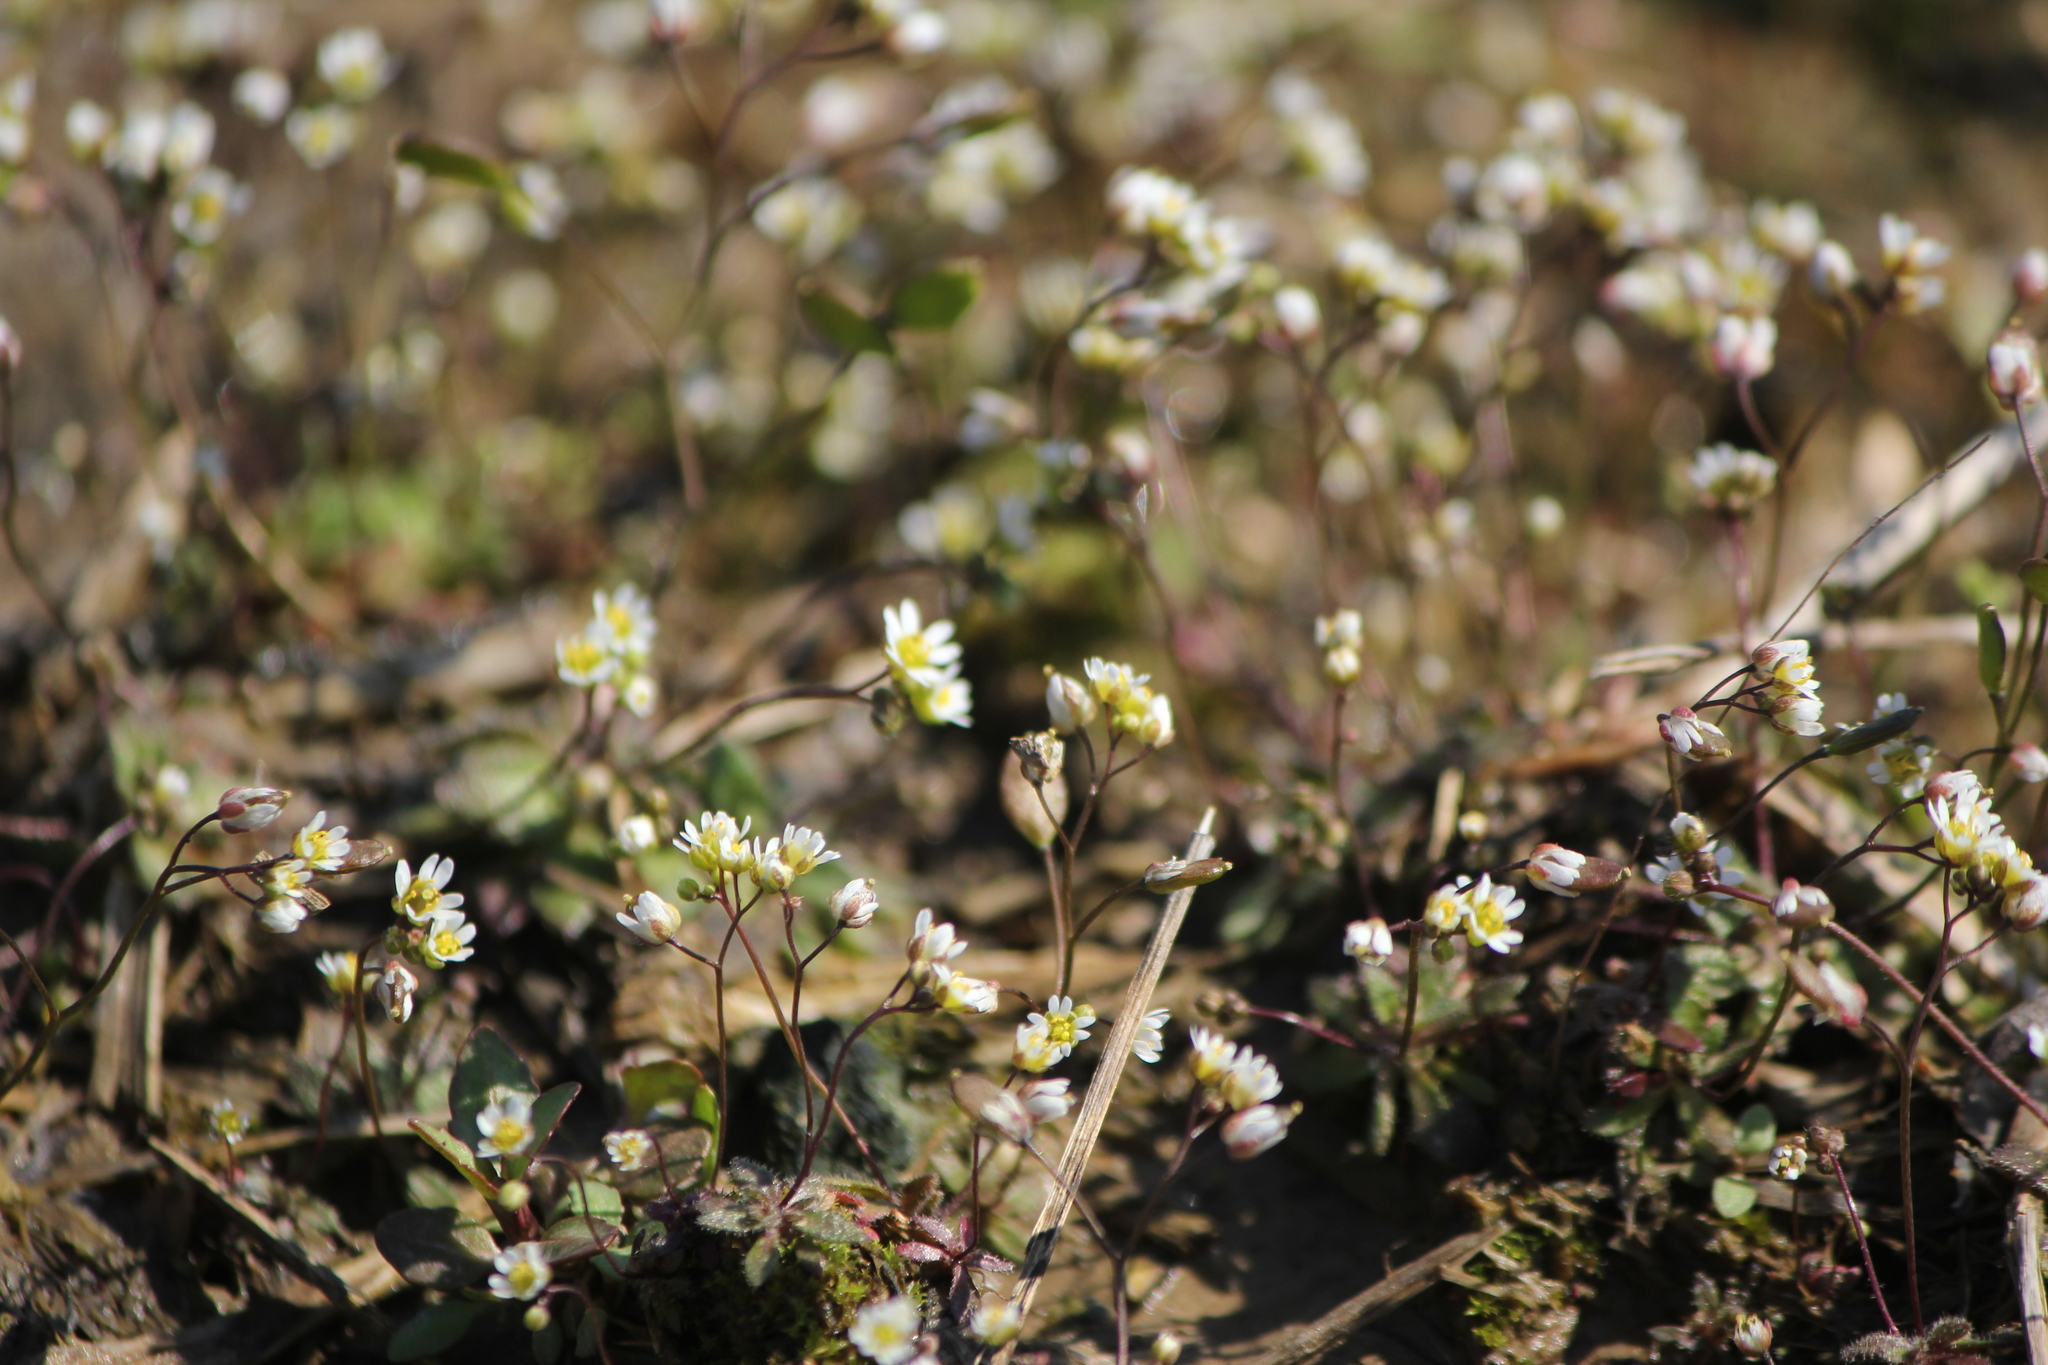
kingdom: Plantae
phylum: Tracheophyta
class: Magnoliopsida
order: Brassicales
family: Brassicaceae
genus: Draba
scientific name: Draba verna
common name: Spring draba
